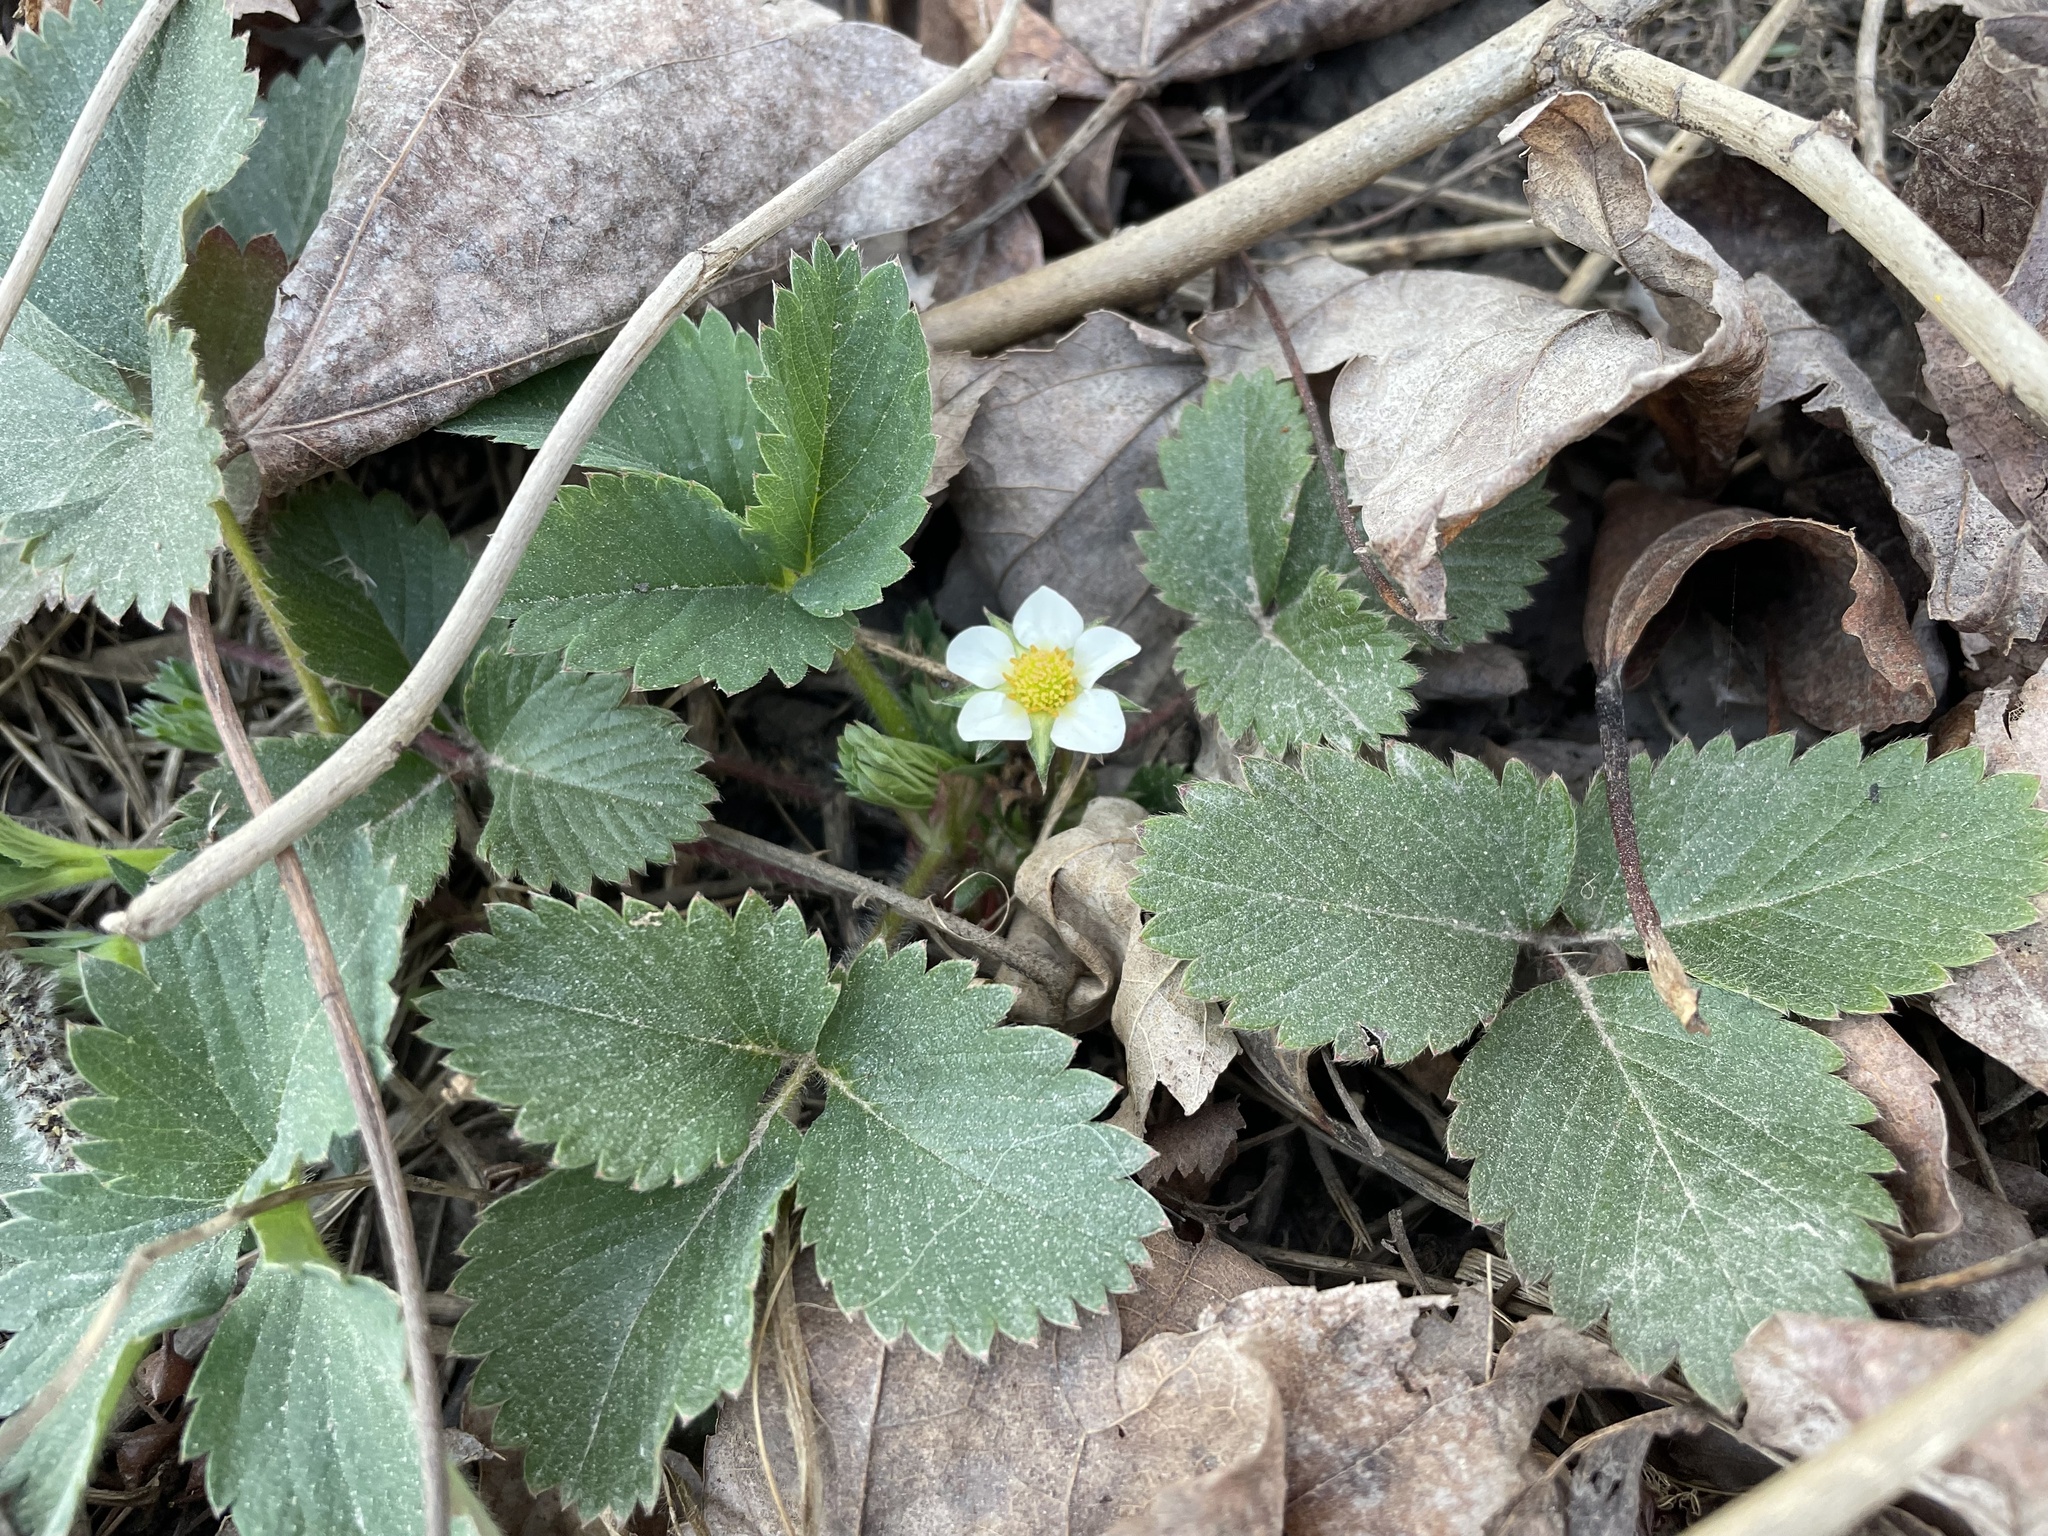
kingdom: Plantae
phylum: Tracheophyta
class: Magnoliopsida
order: Rosales
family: Rosaceae
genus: Fragaria
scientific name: Fragaria virginiana
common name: Thickleaved wild strawberry
